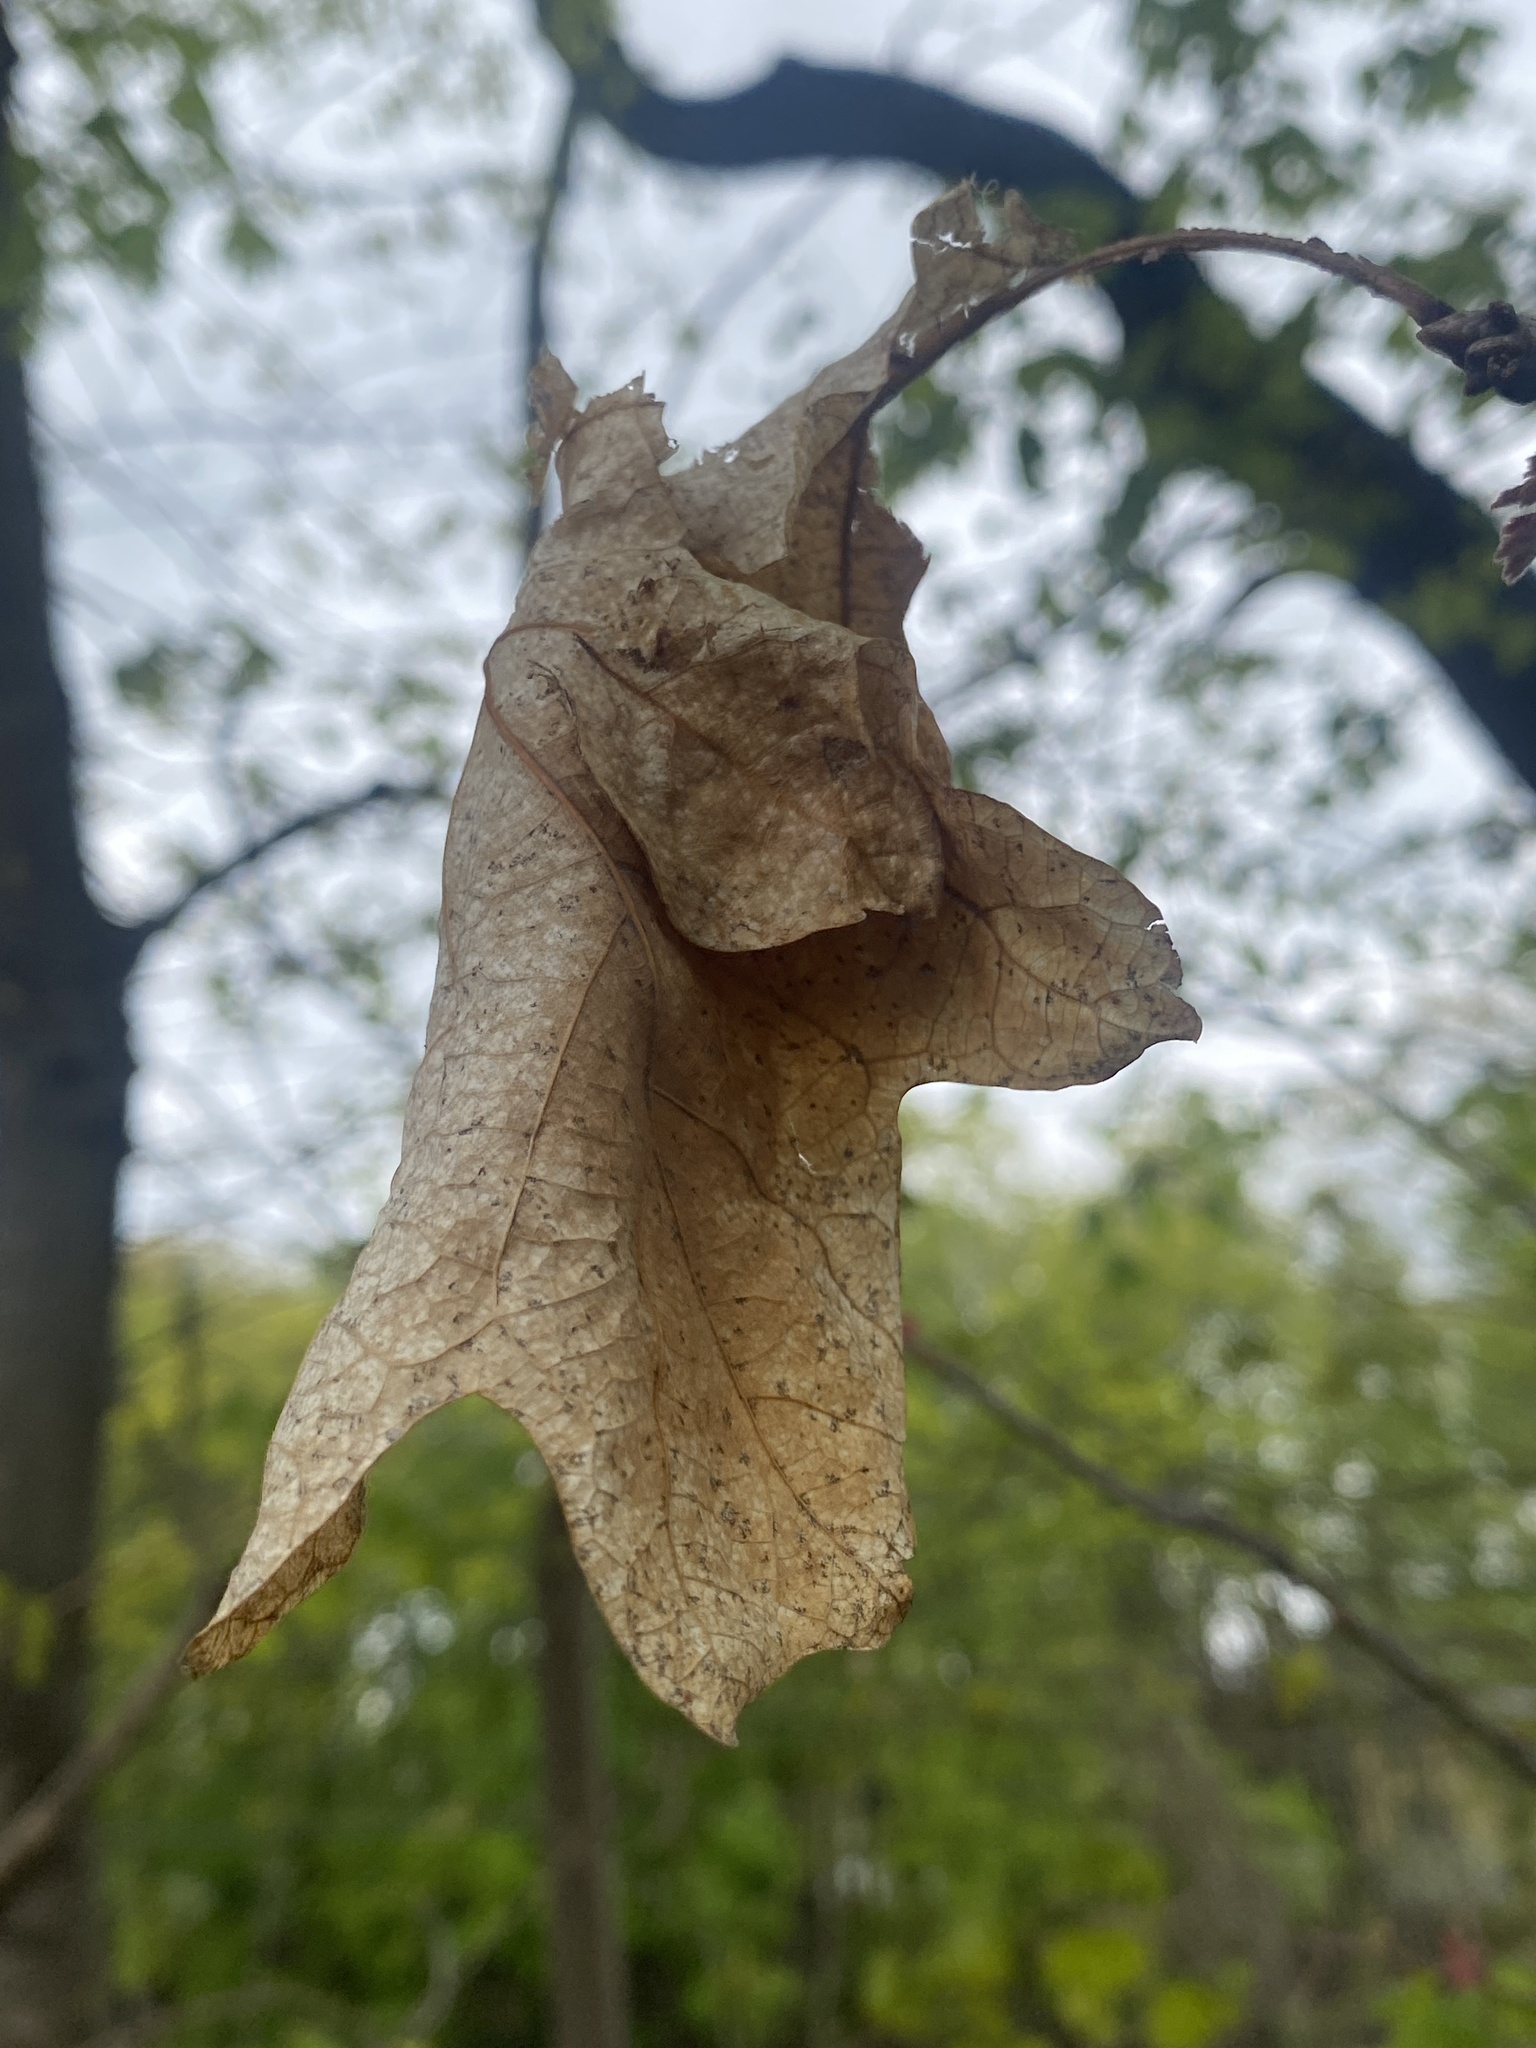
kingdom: Plantae
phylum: Tracheophyta
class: Magnoliopsida
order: Fagales
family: Fagaceae
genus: Quercus
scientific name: Quercus alba
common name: White oak
